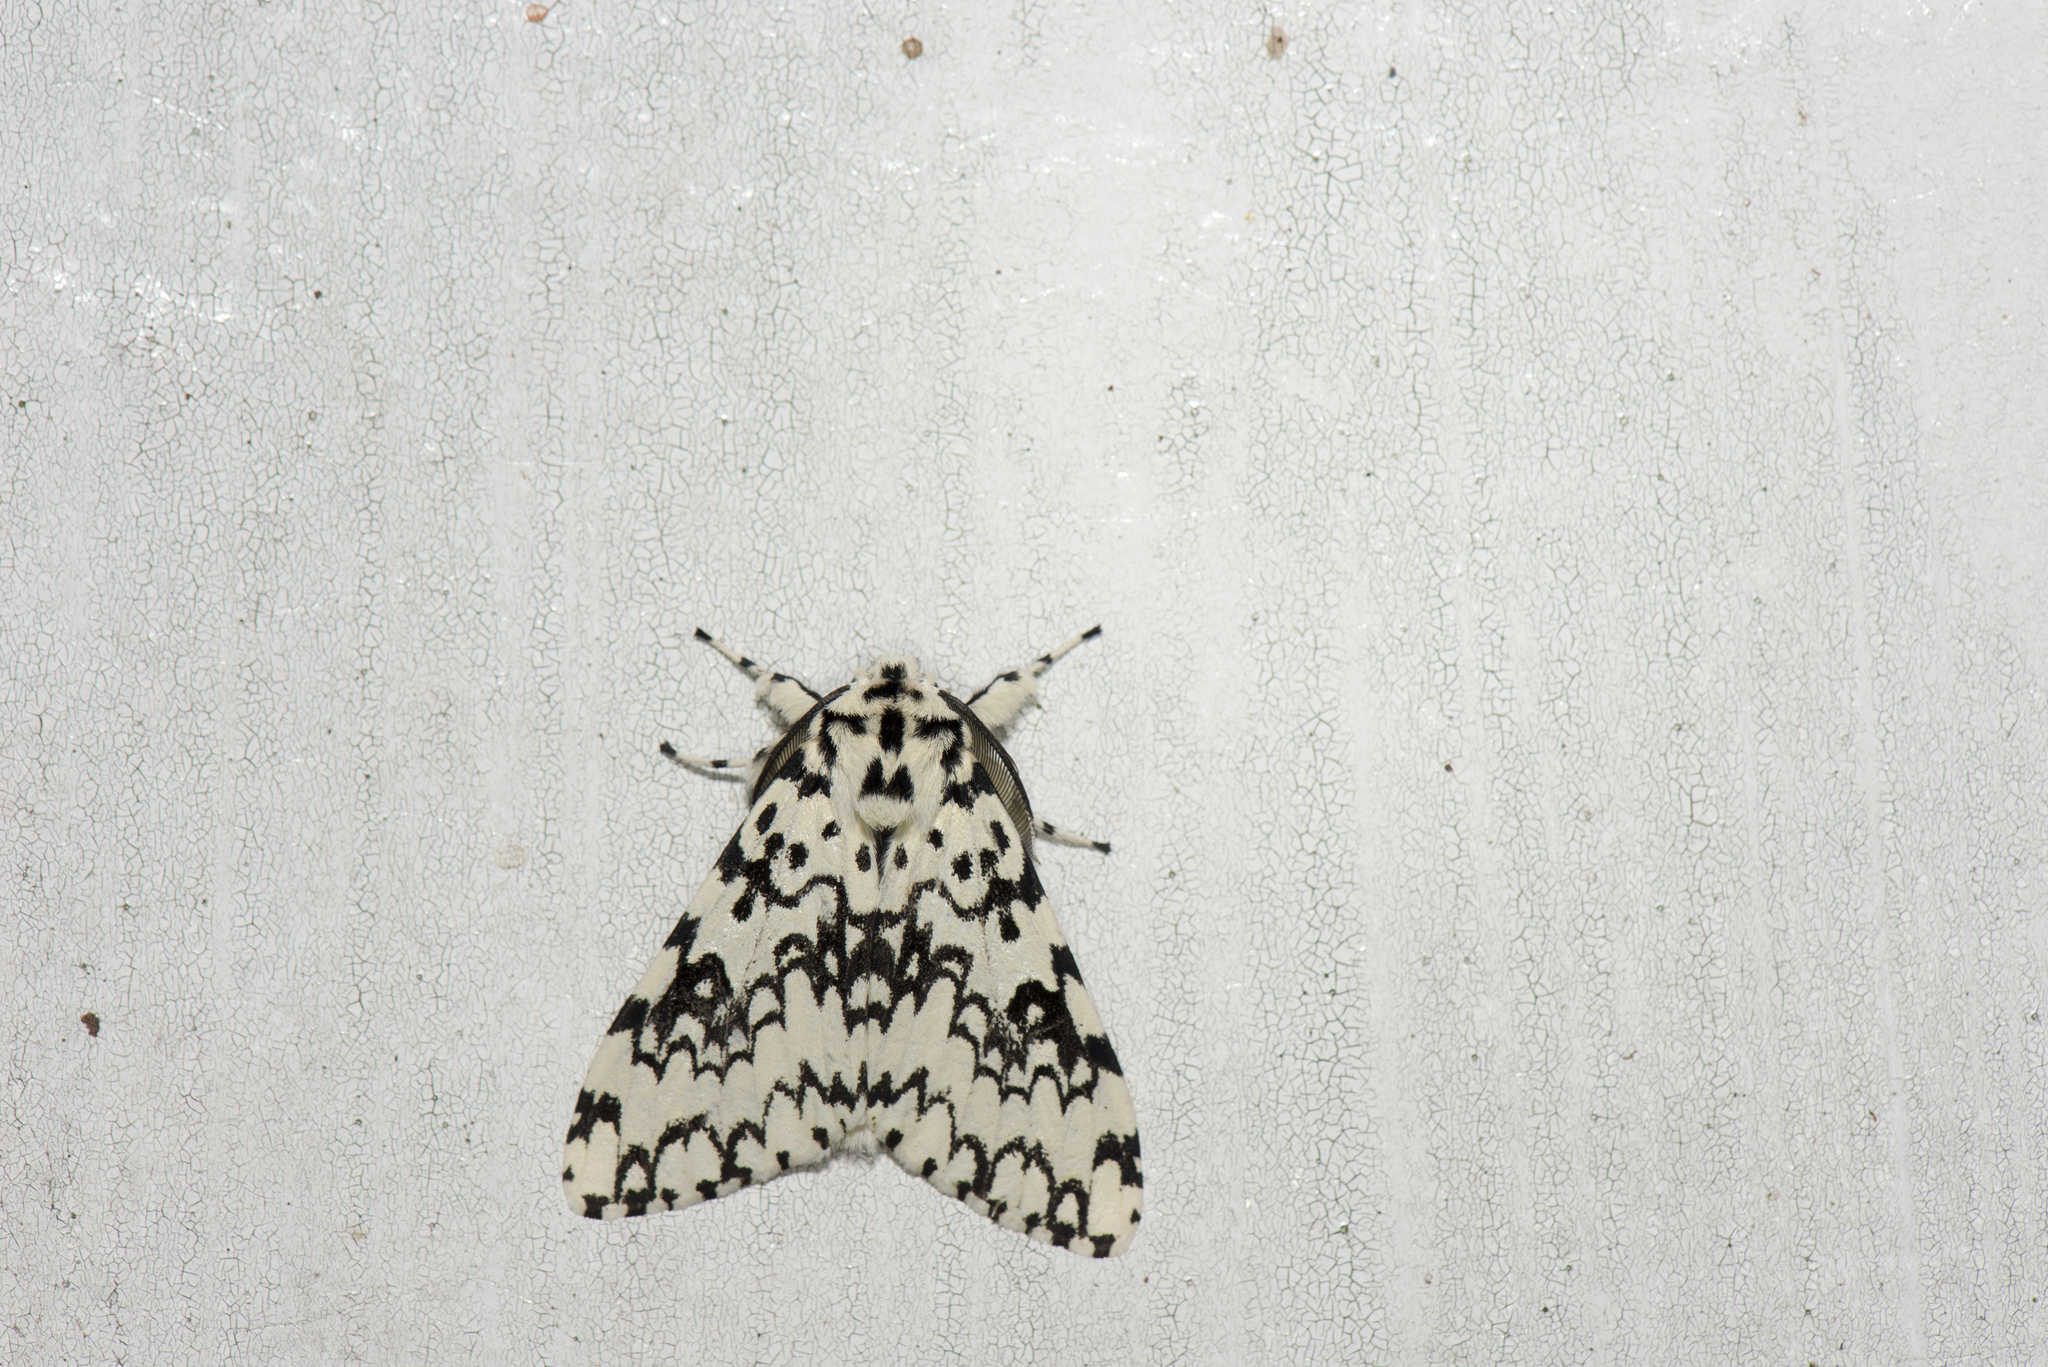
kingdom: Animalia
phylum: Arthropoda
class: Insecta
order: Lepidoptera
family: Erebidae
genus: Lymantria
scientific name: Lymantria concolor
